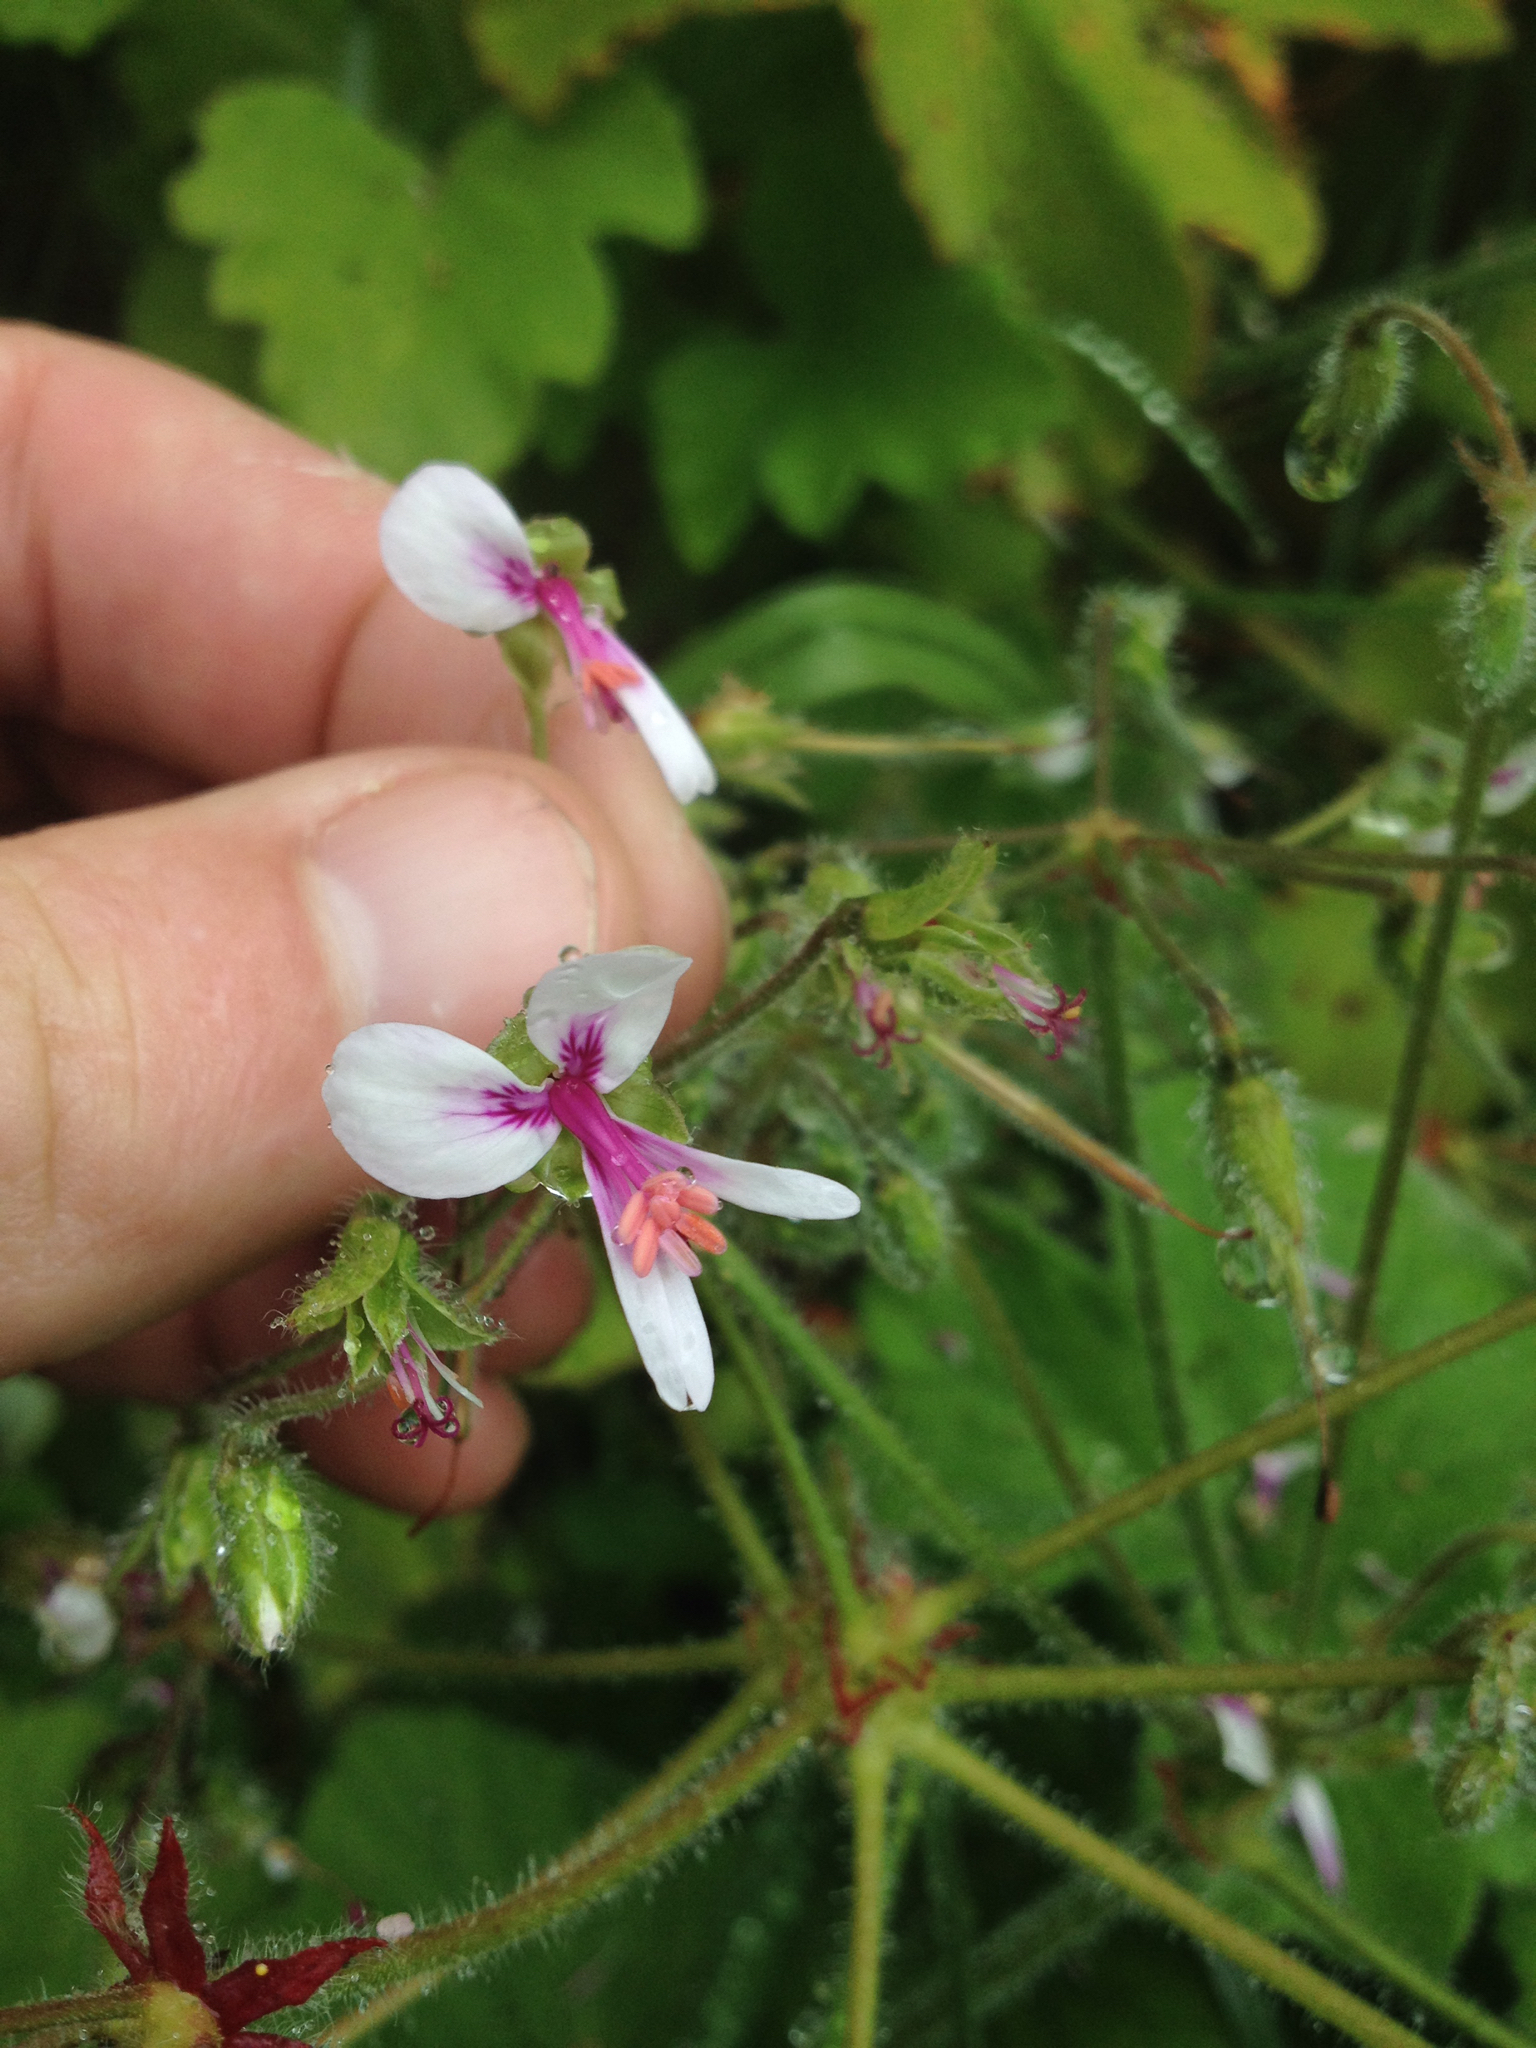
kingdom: Plantae
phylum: Tracheophyta
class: Magnoliopsida
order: Geraniales
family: Geraniaceae
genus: Pelargonium
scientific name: Pelargonium tomentosum
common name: Peppermint-scented geranium
